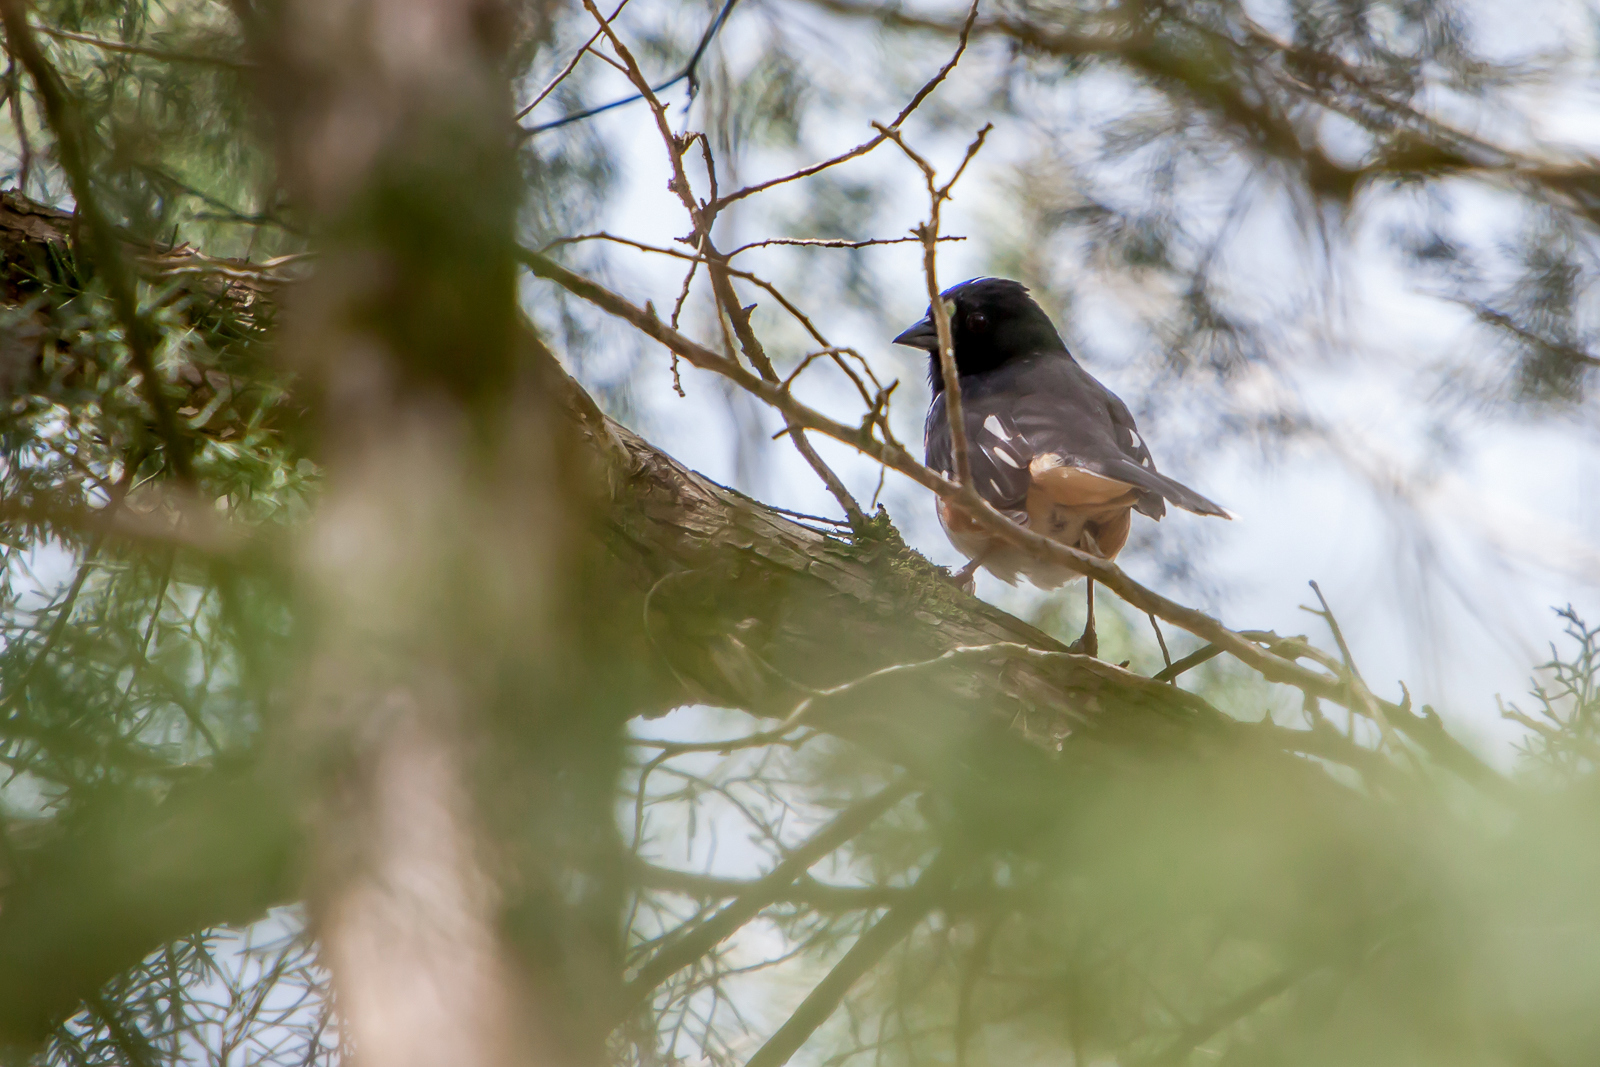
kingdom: Animalia
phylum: Chordata
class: Aves
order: Passeriformes
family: Passerellidae
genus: Pipilo
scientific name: Pipilo erythrophthalmus
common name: Eastern towhee
